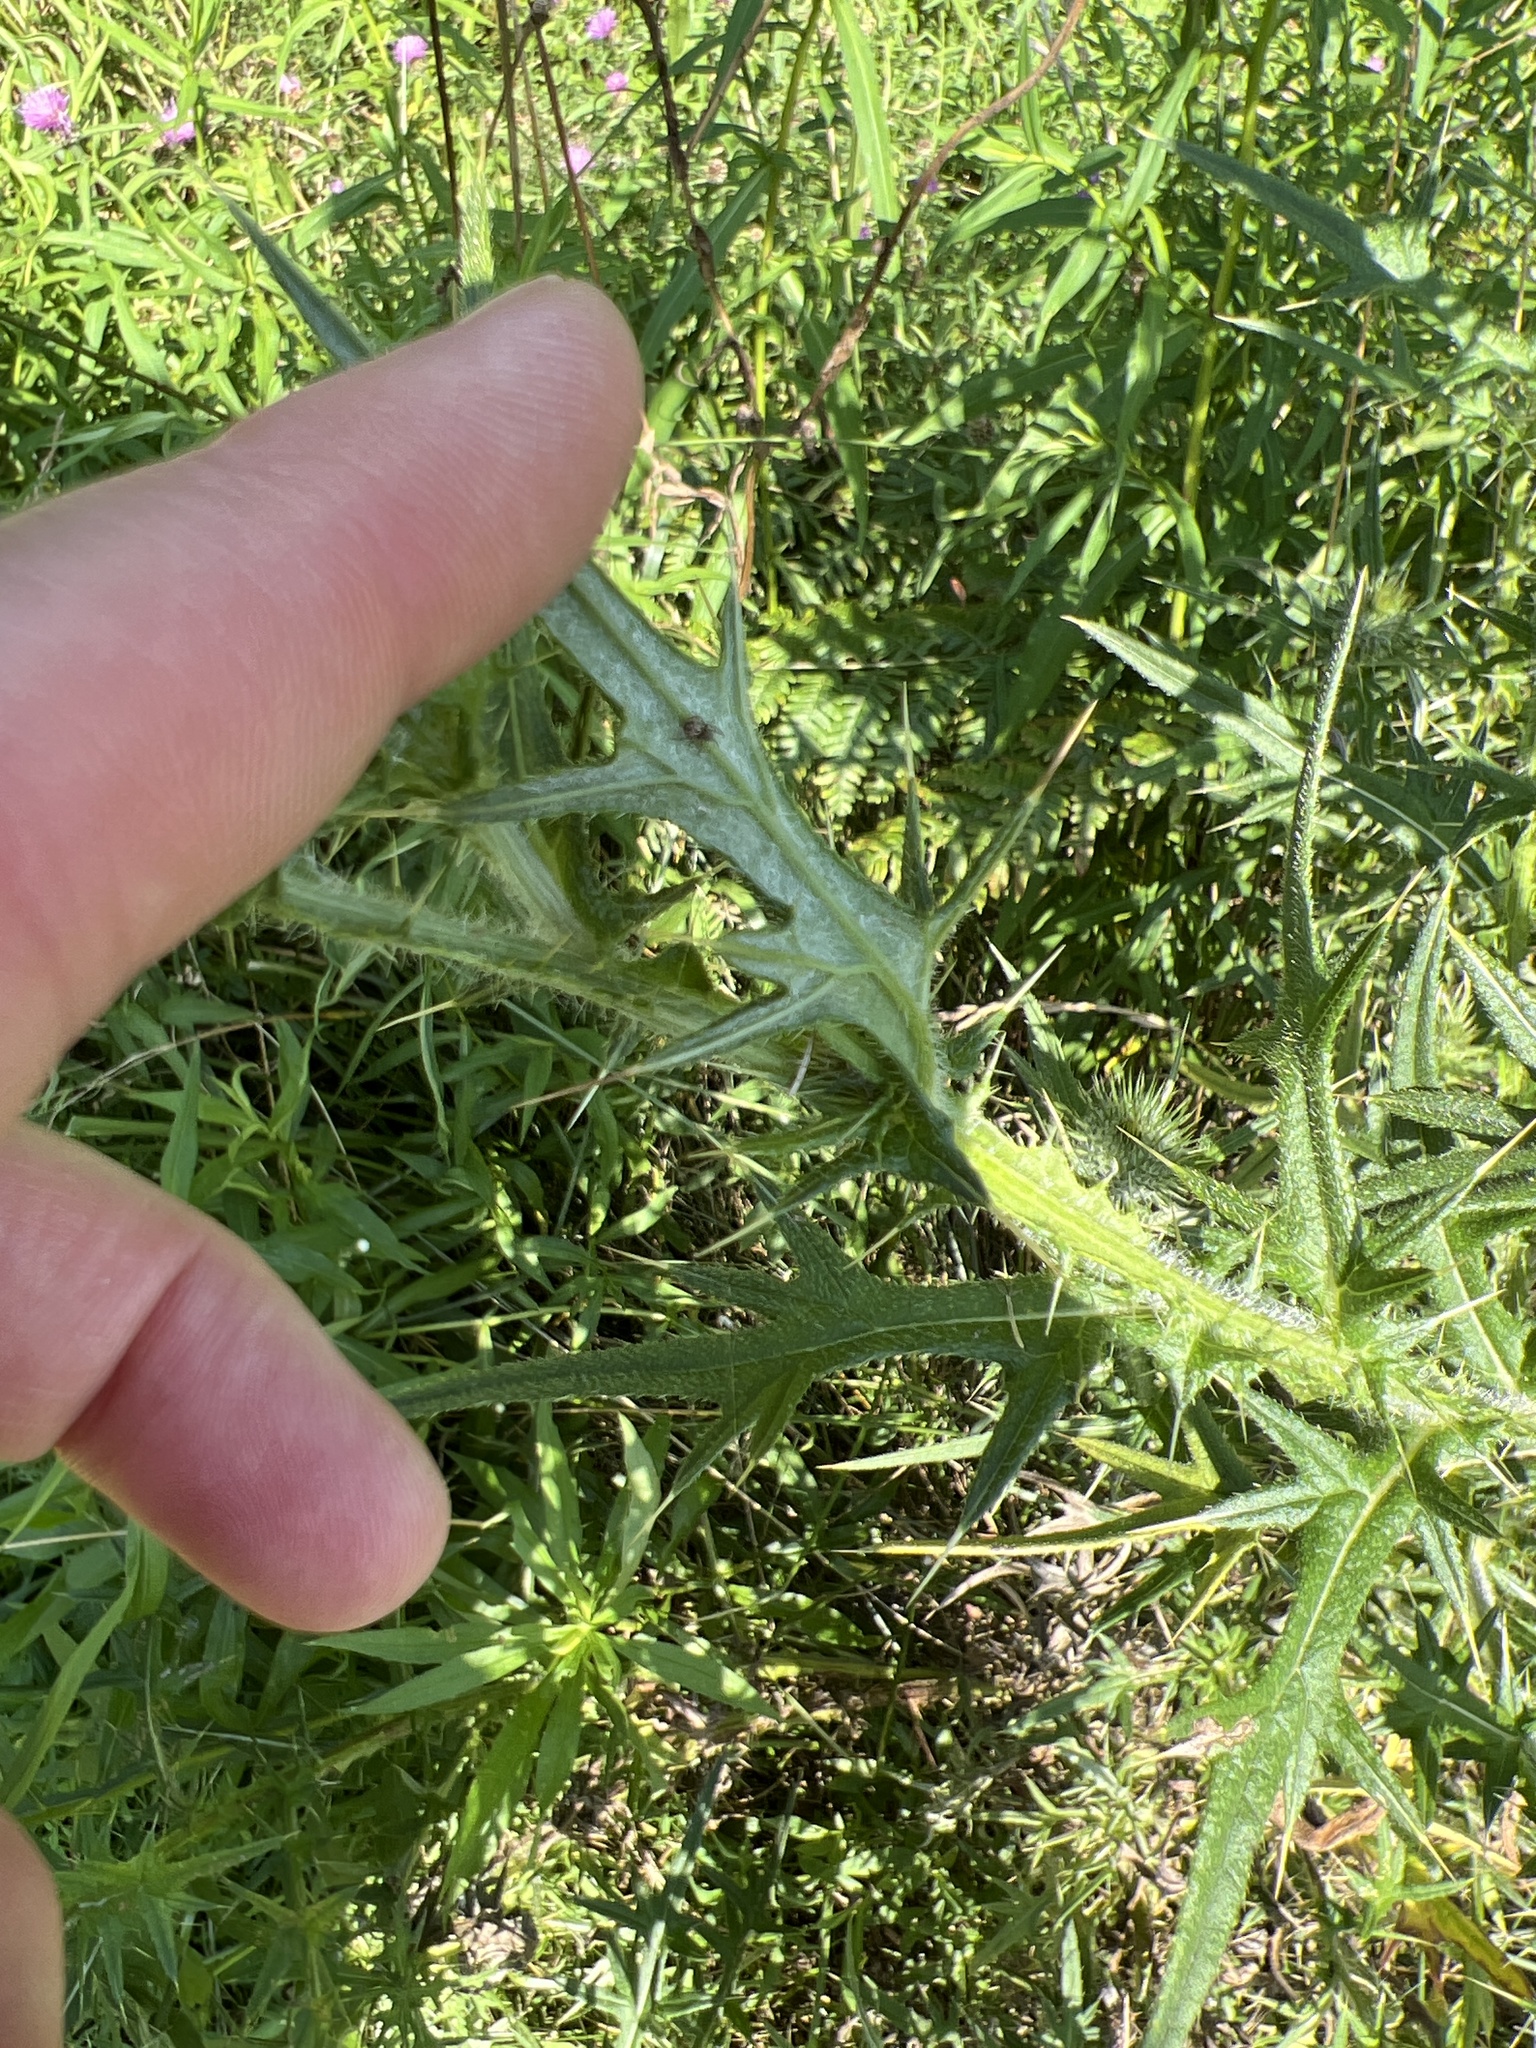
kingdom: Plantae
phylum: Tracheophyta
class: Magnoliopsida
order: Asterales
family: Asteraceae
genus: Cirsium
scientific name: Cirsium vulgare
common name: Bull thistle
